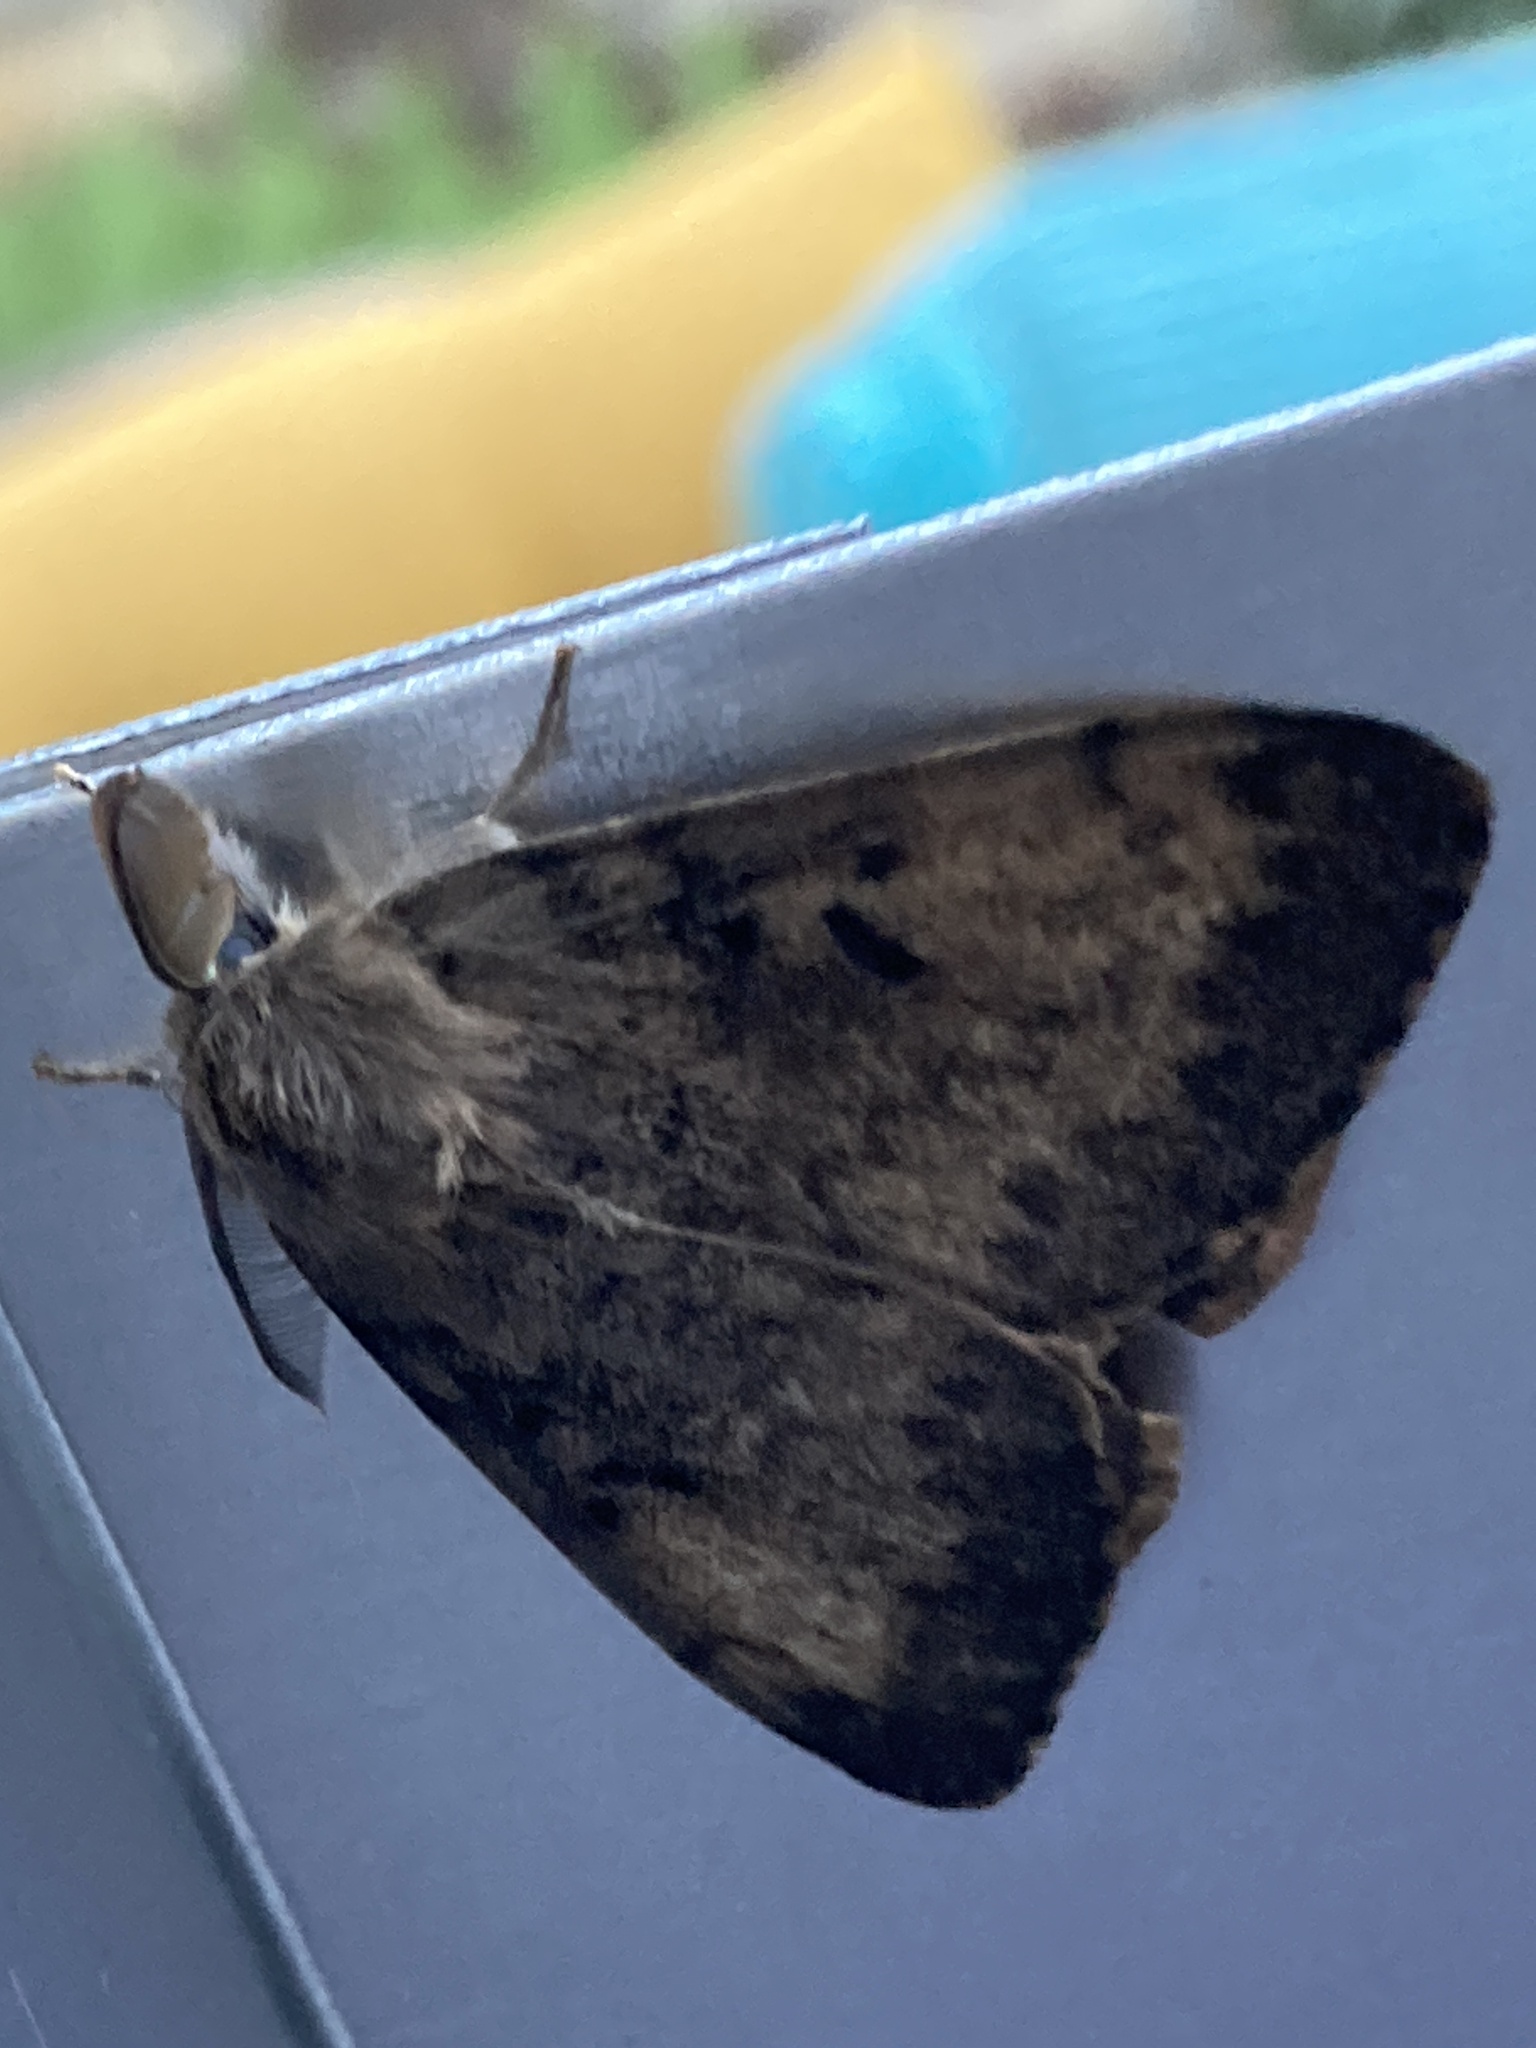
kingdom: Animalia
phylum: Arthropoda
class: Insecta
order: Lepidoptera
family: Erebidae
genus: Lymantria
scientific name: Lymantria dispar
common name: Gypsy moth
